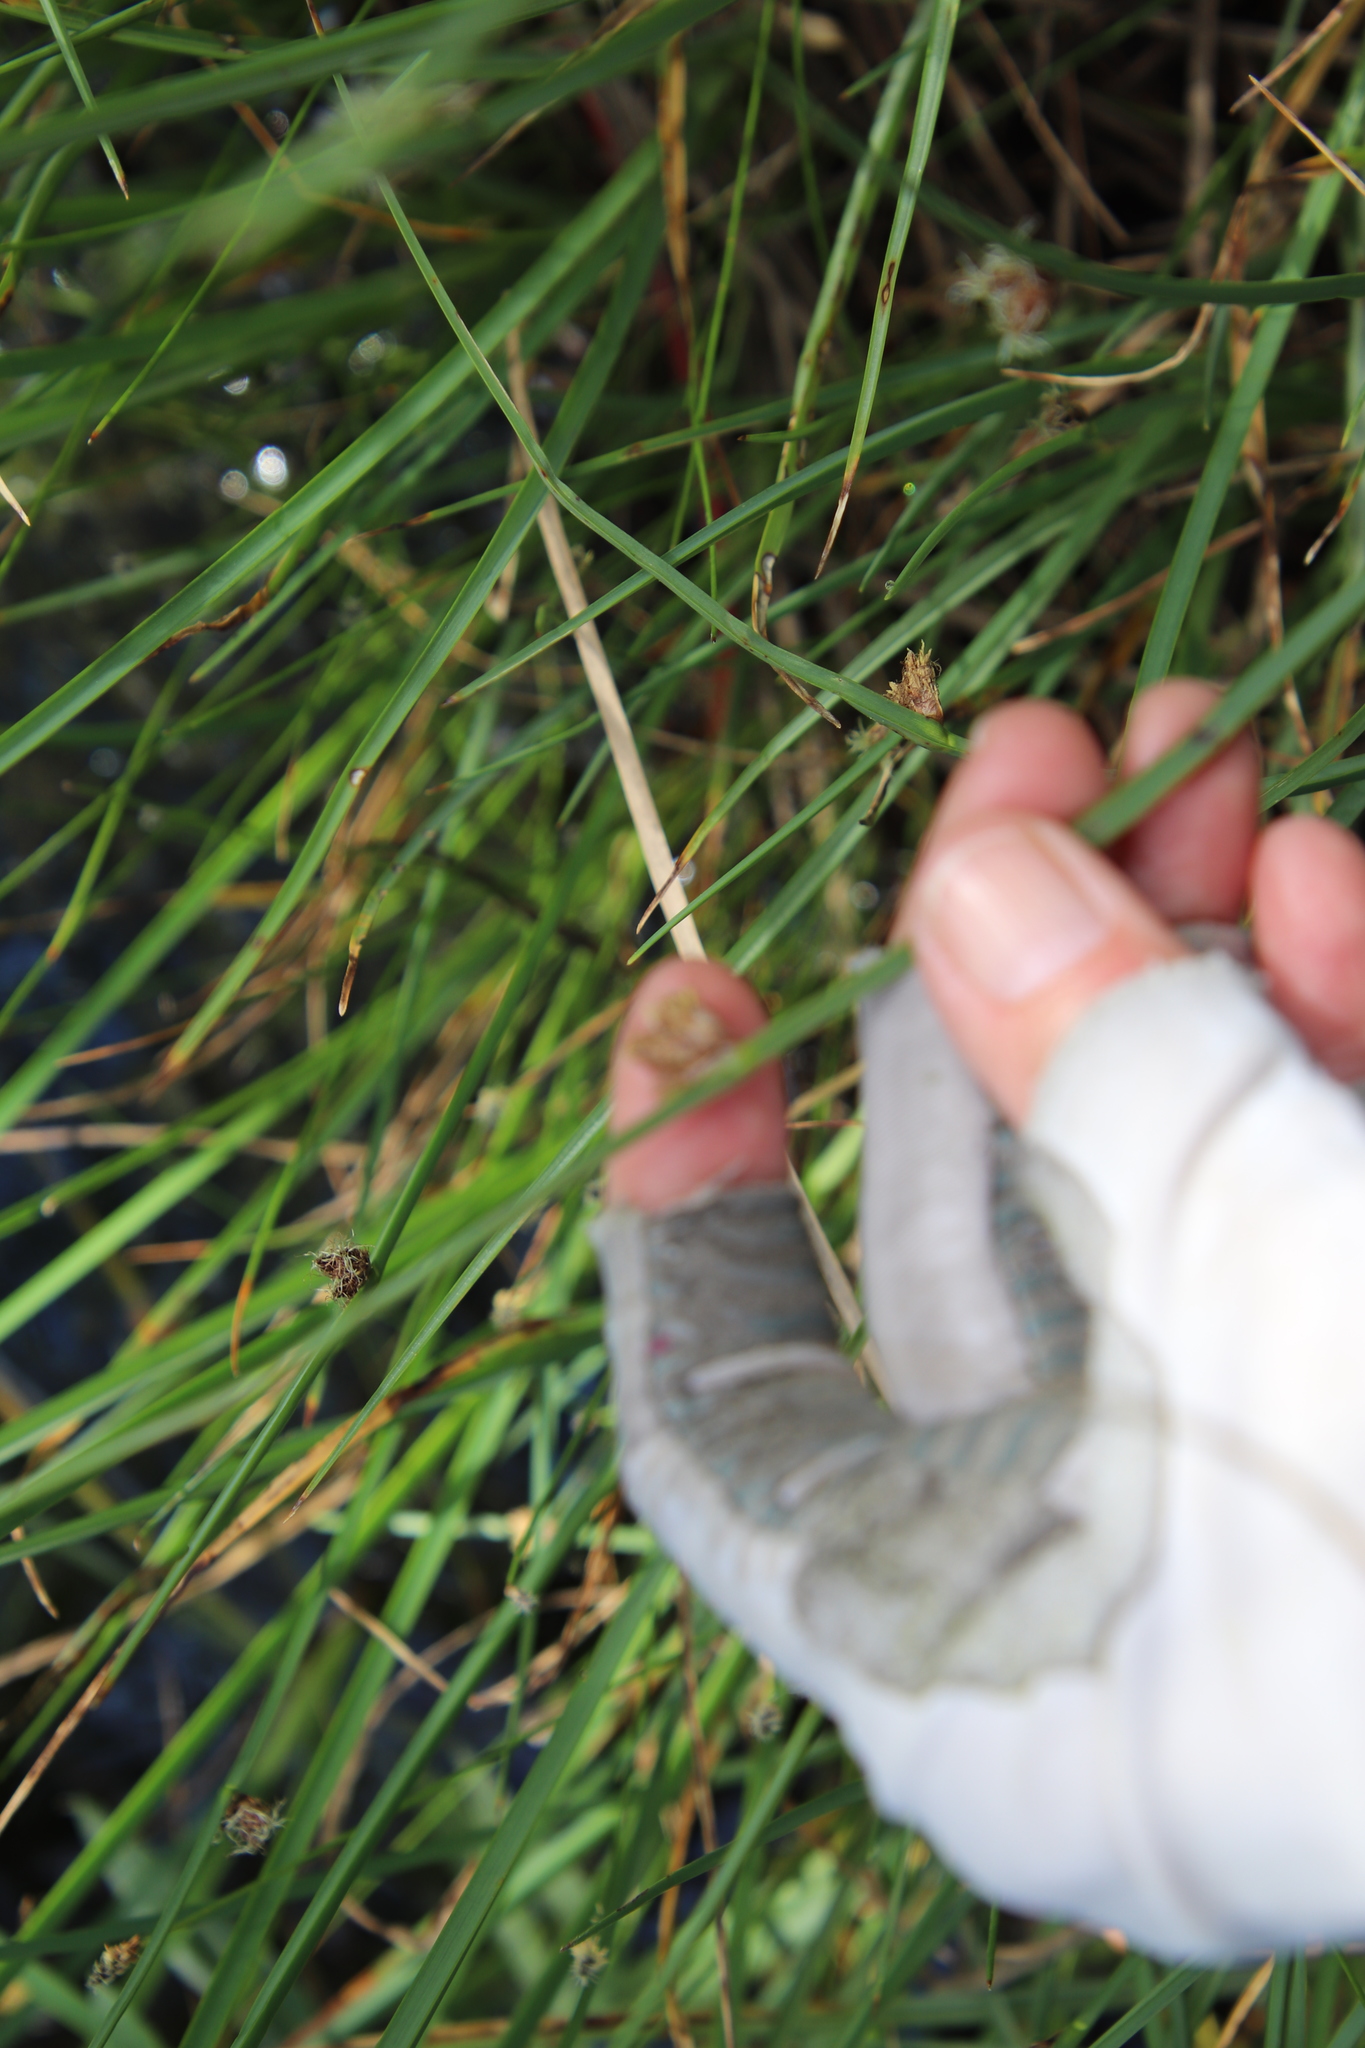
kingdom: Plantae
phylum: Tracheophyta
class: Liliopsida
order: Poales
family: Cyperaceae
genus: Schoenoplectus
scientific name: Schoenoplectus pungens
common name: Sharp club-rush
